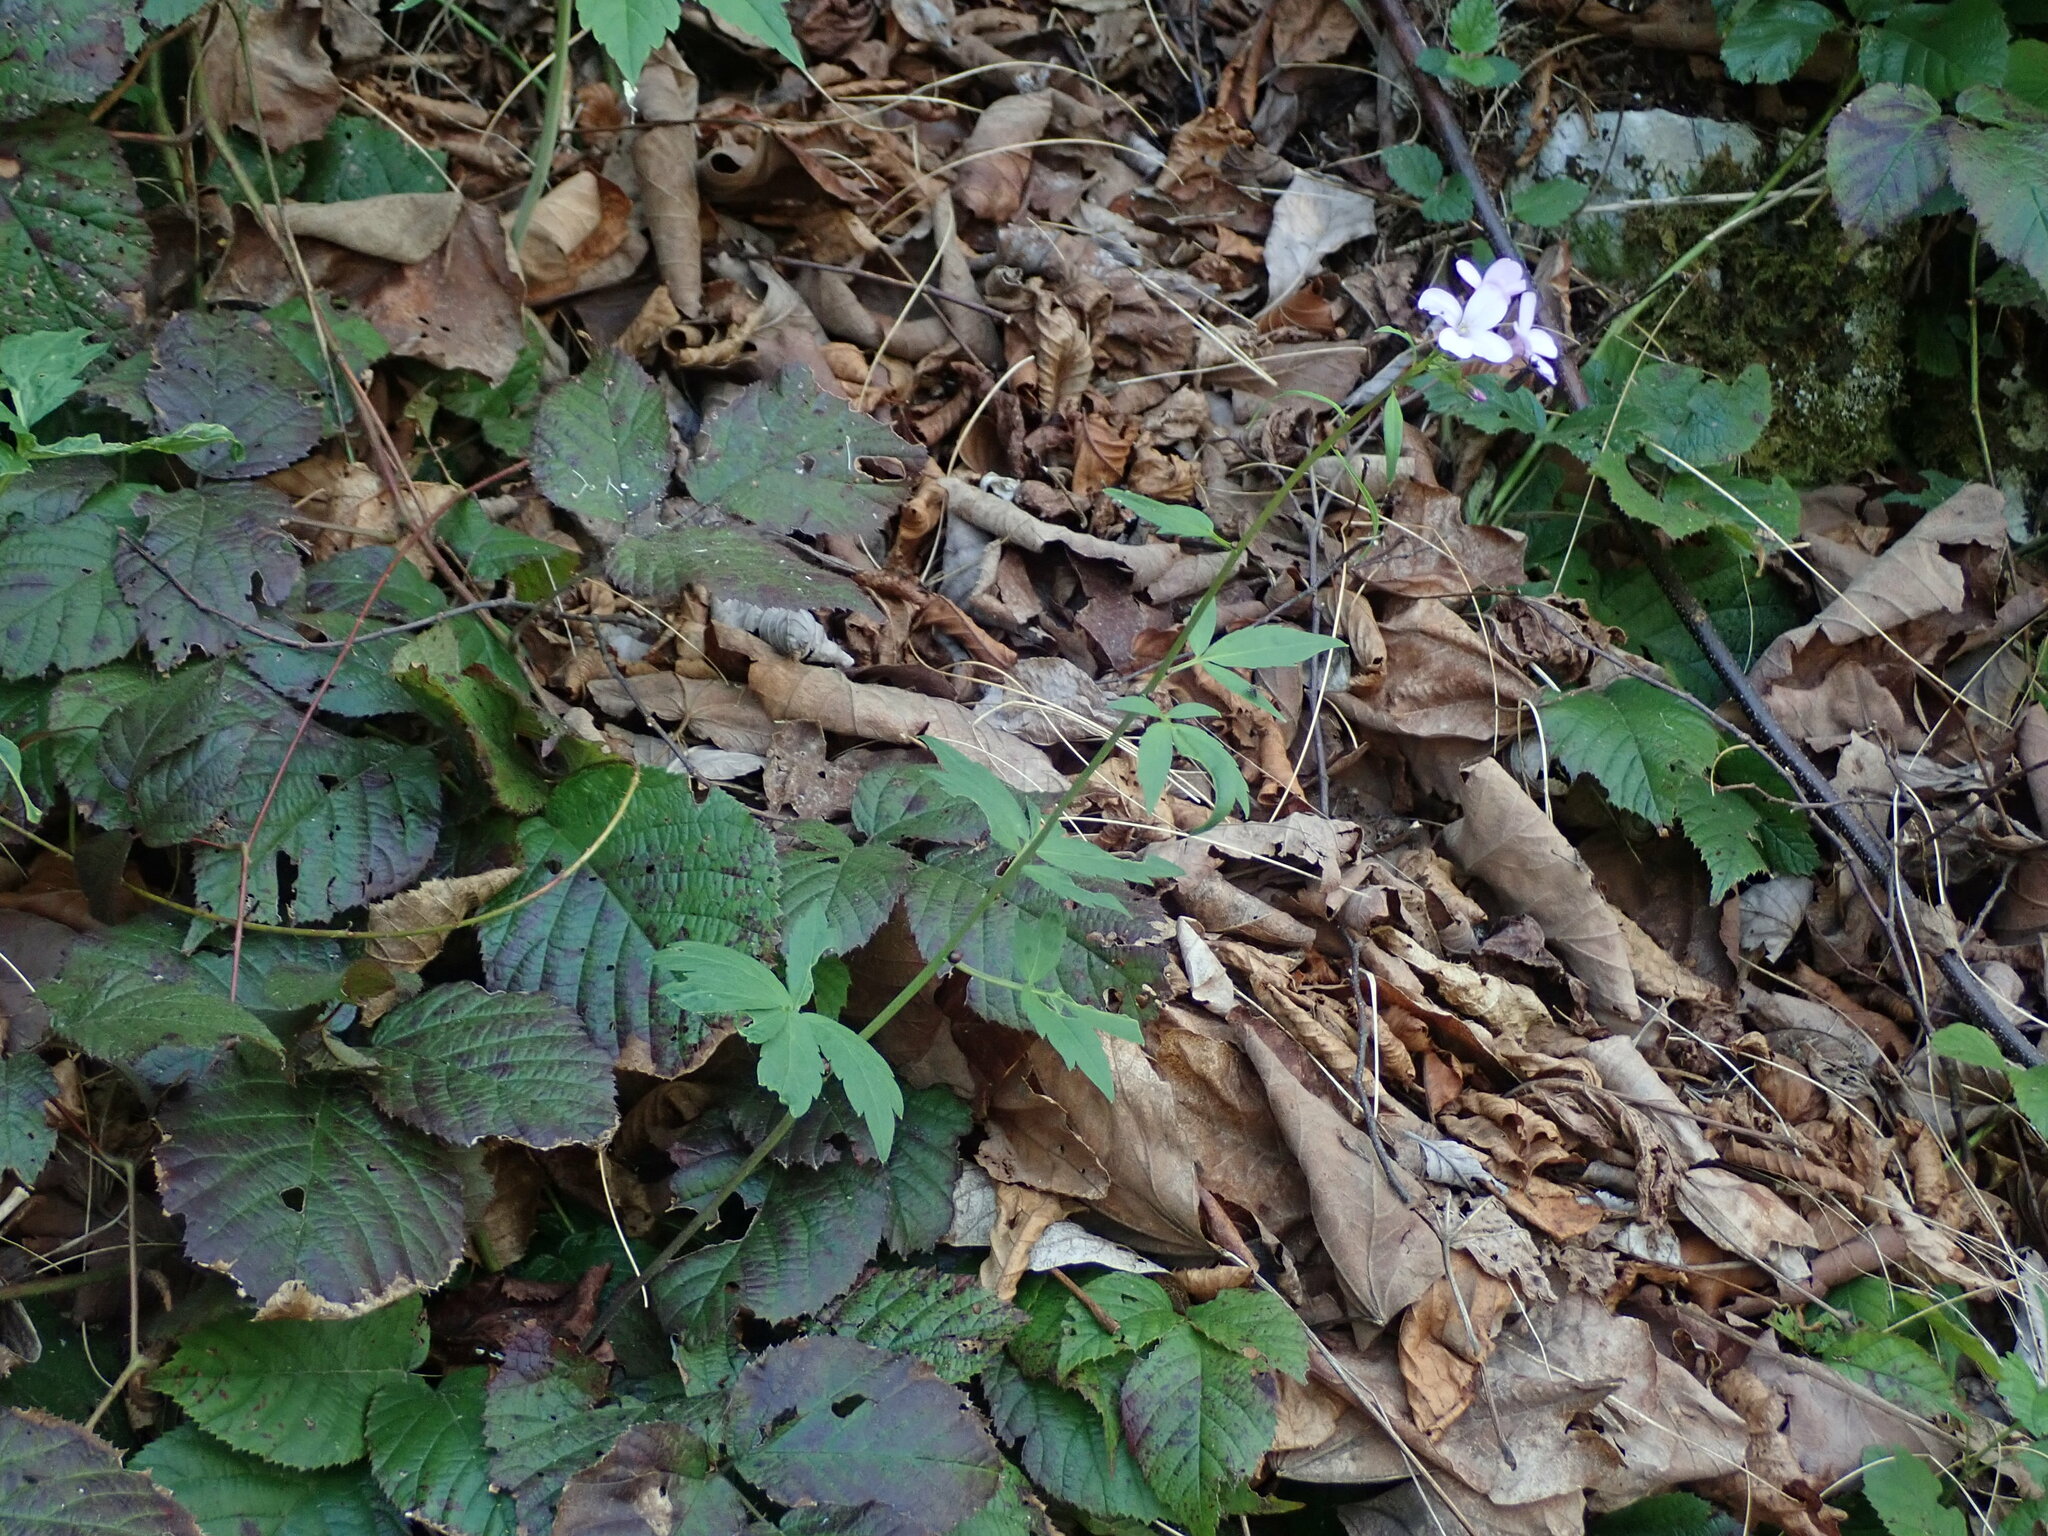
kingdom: Plantae
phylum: Tracheophyta
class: Magnoliopsida
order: Brassicales
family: Brassicaceae
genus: Cardamine
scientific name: Cardamine bulbifera
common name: Coralroot bittercress
